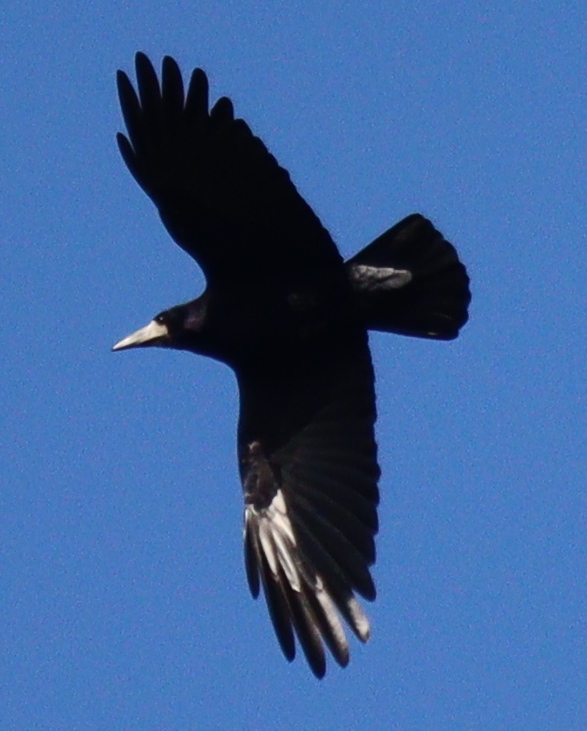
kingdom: Animalia
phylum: Chordata
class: Aves
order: Passeriformes
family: Corvidae
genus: Corvus
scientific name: Corvus frugilegus
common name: Rook
